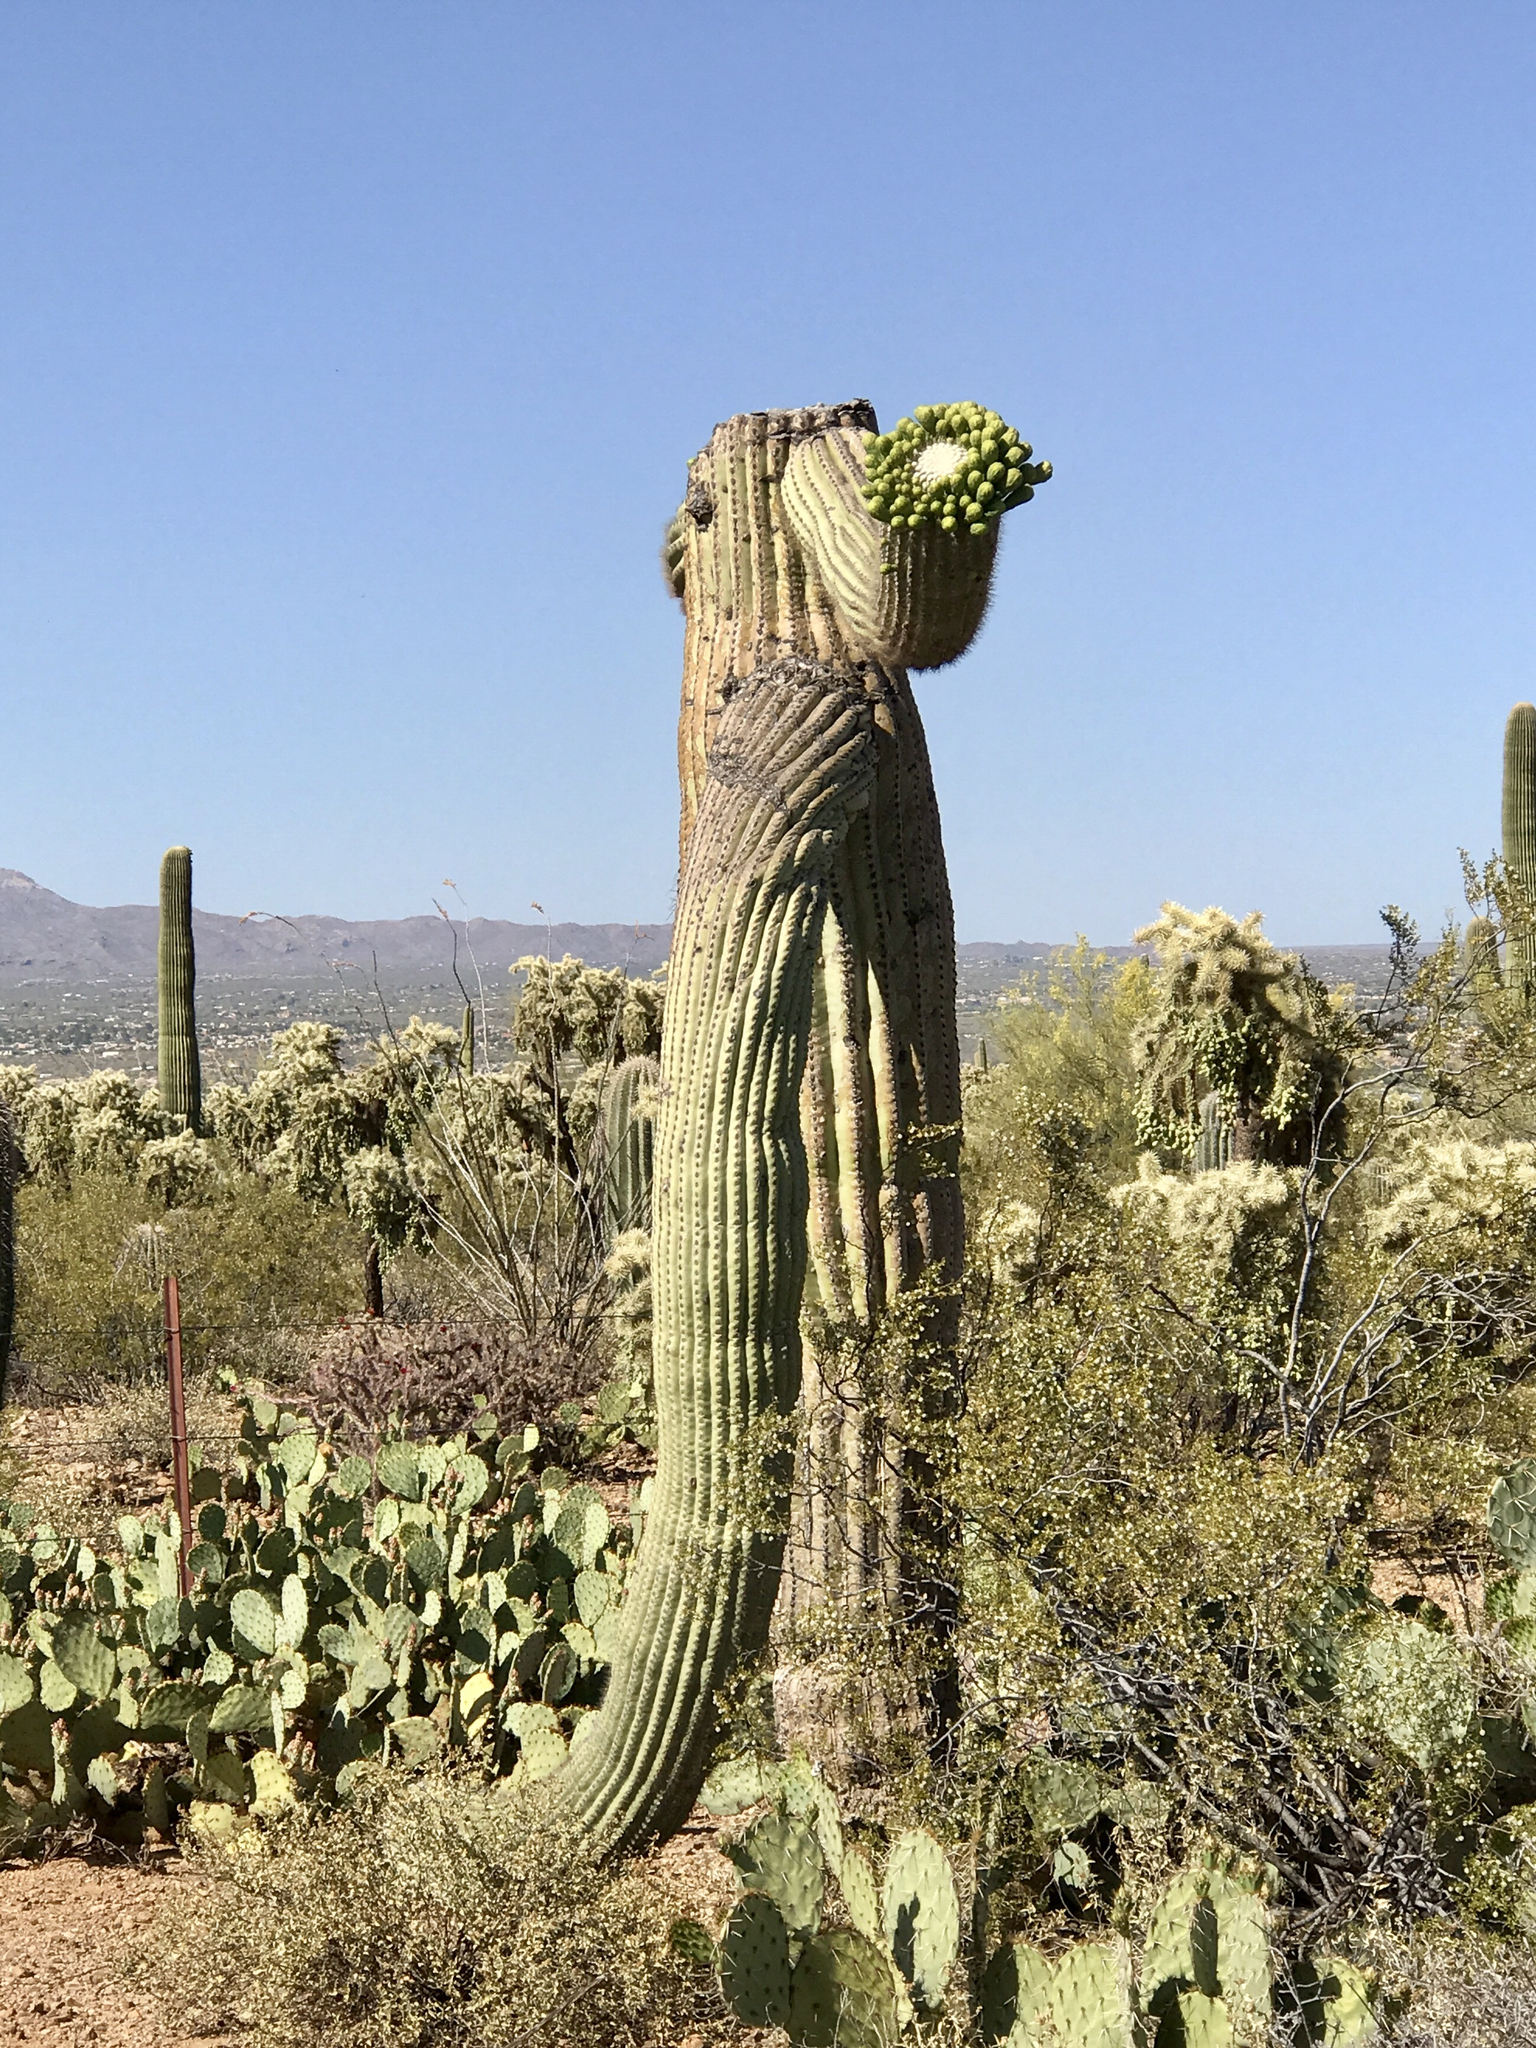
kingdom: Plantae
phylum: Tracheophyta
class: Magnoliopsida
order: Caryophyllales
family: Cactaceae
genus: Carnegiea
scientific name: Carnegiea gigantea
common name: Saguaro
